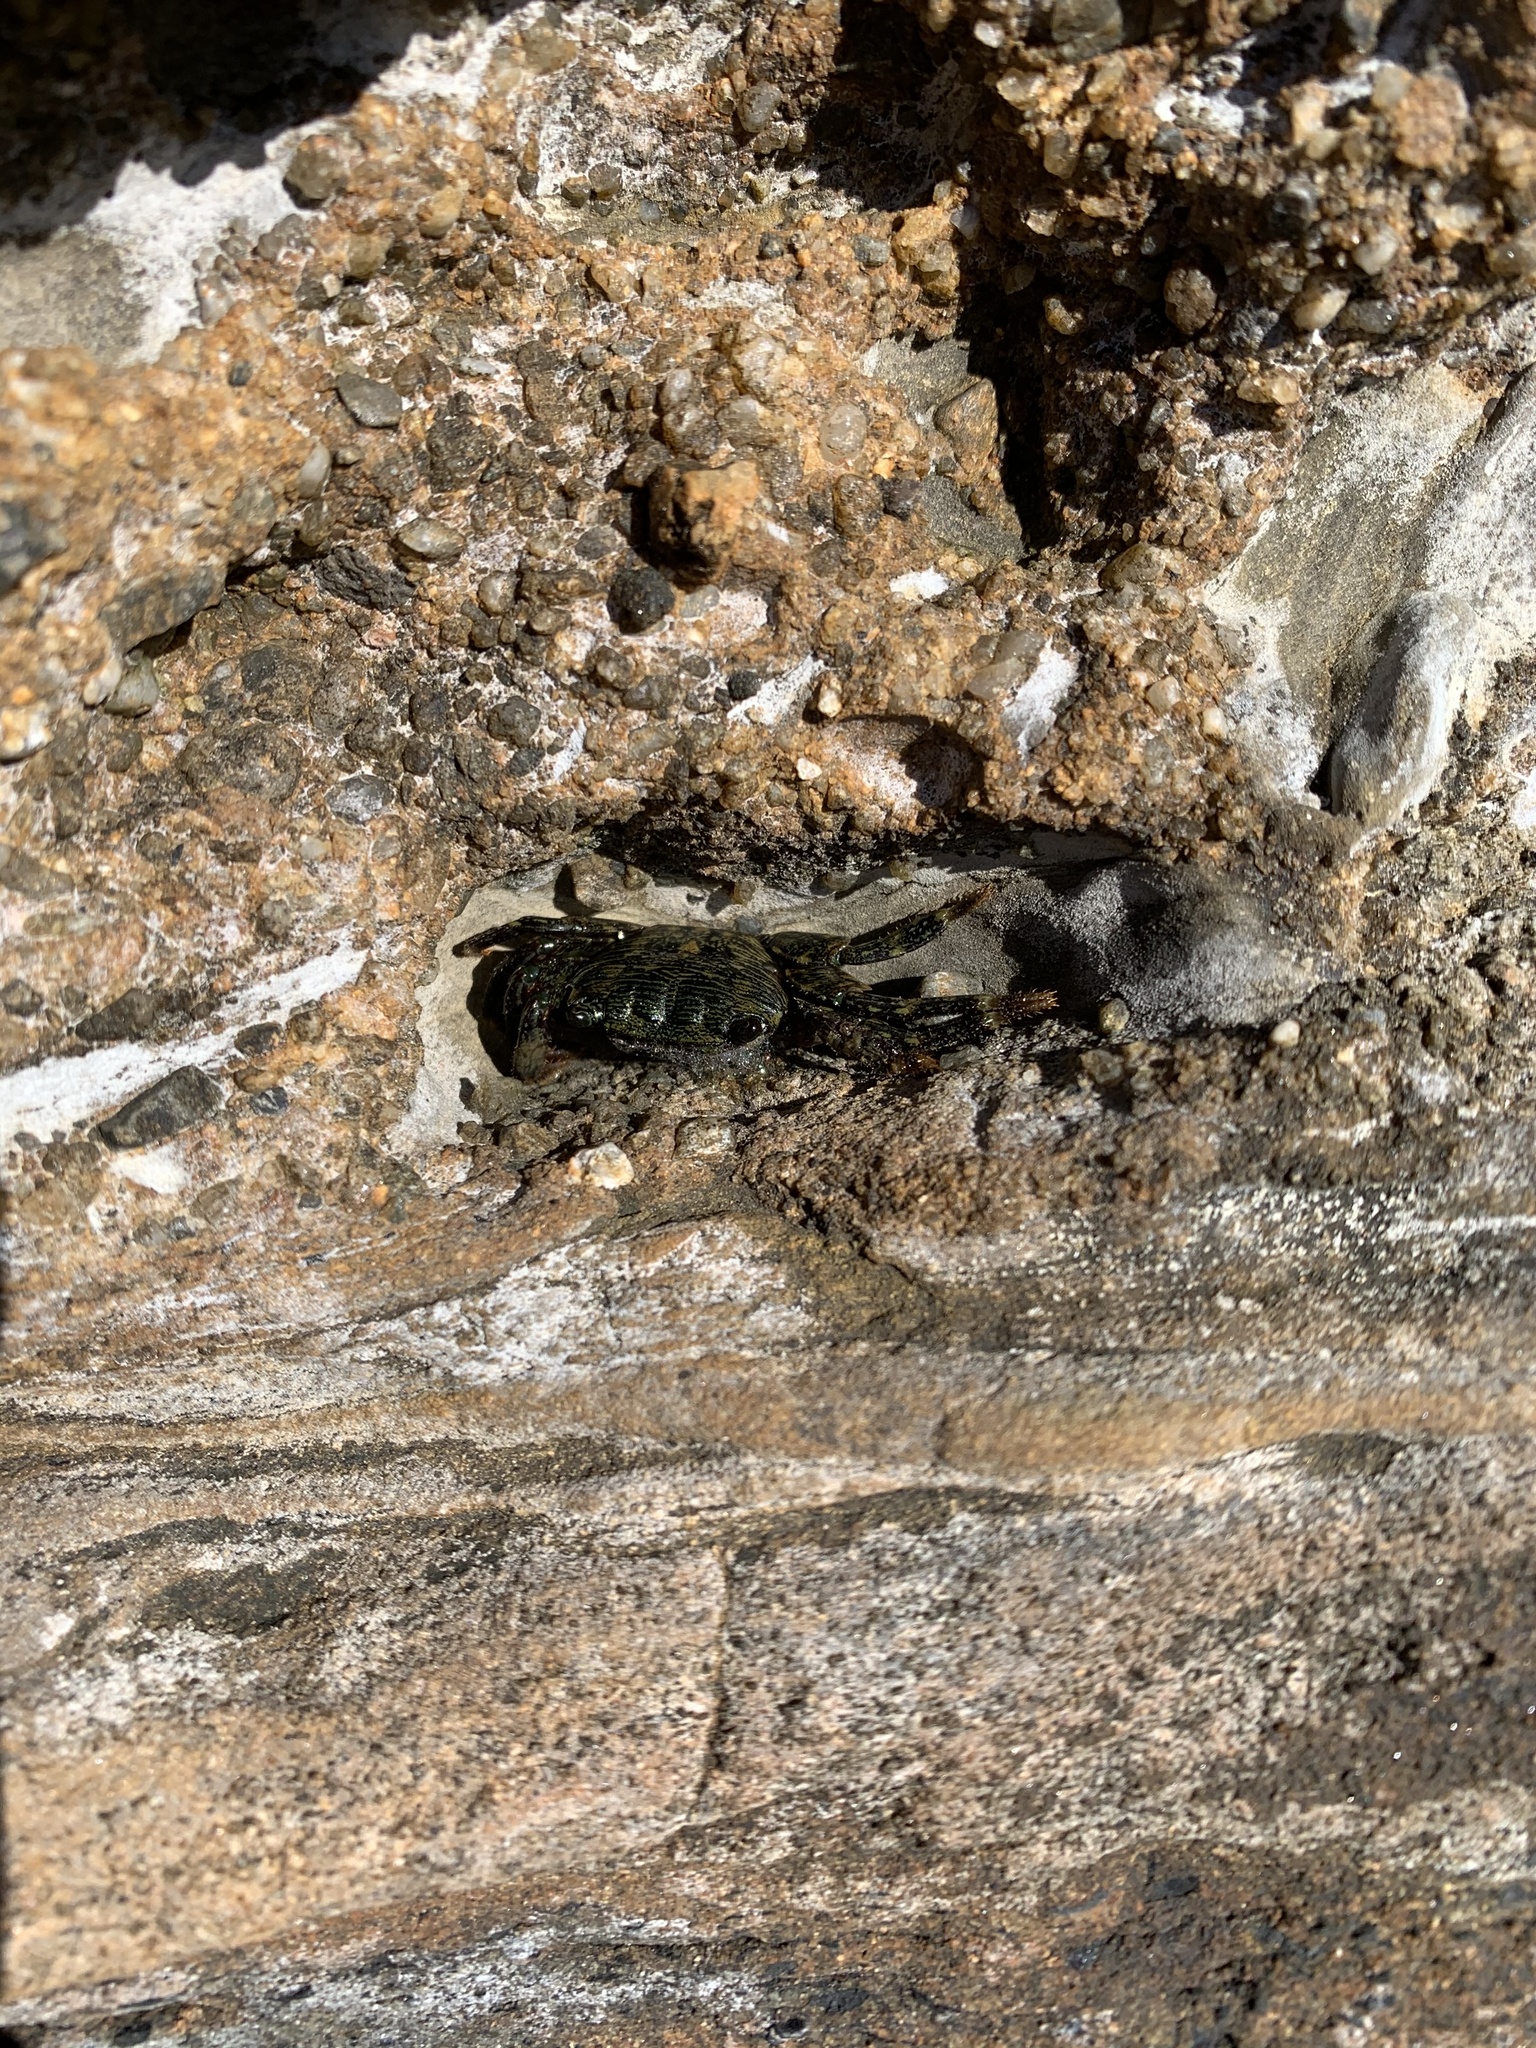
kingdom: Animalia
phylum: Arthropoda
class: Malacostraca
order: Decapoda
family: Grapsidae
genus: Pachygrapsus
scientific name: Pachygrapsus crassipes
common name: Striped shore crab
